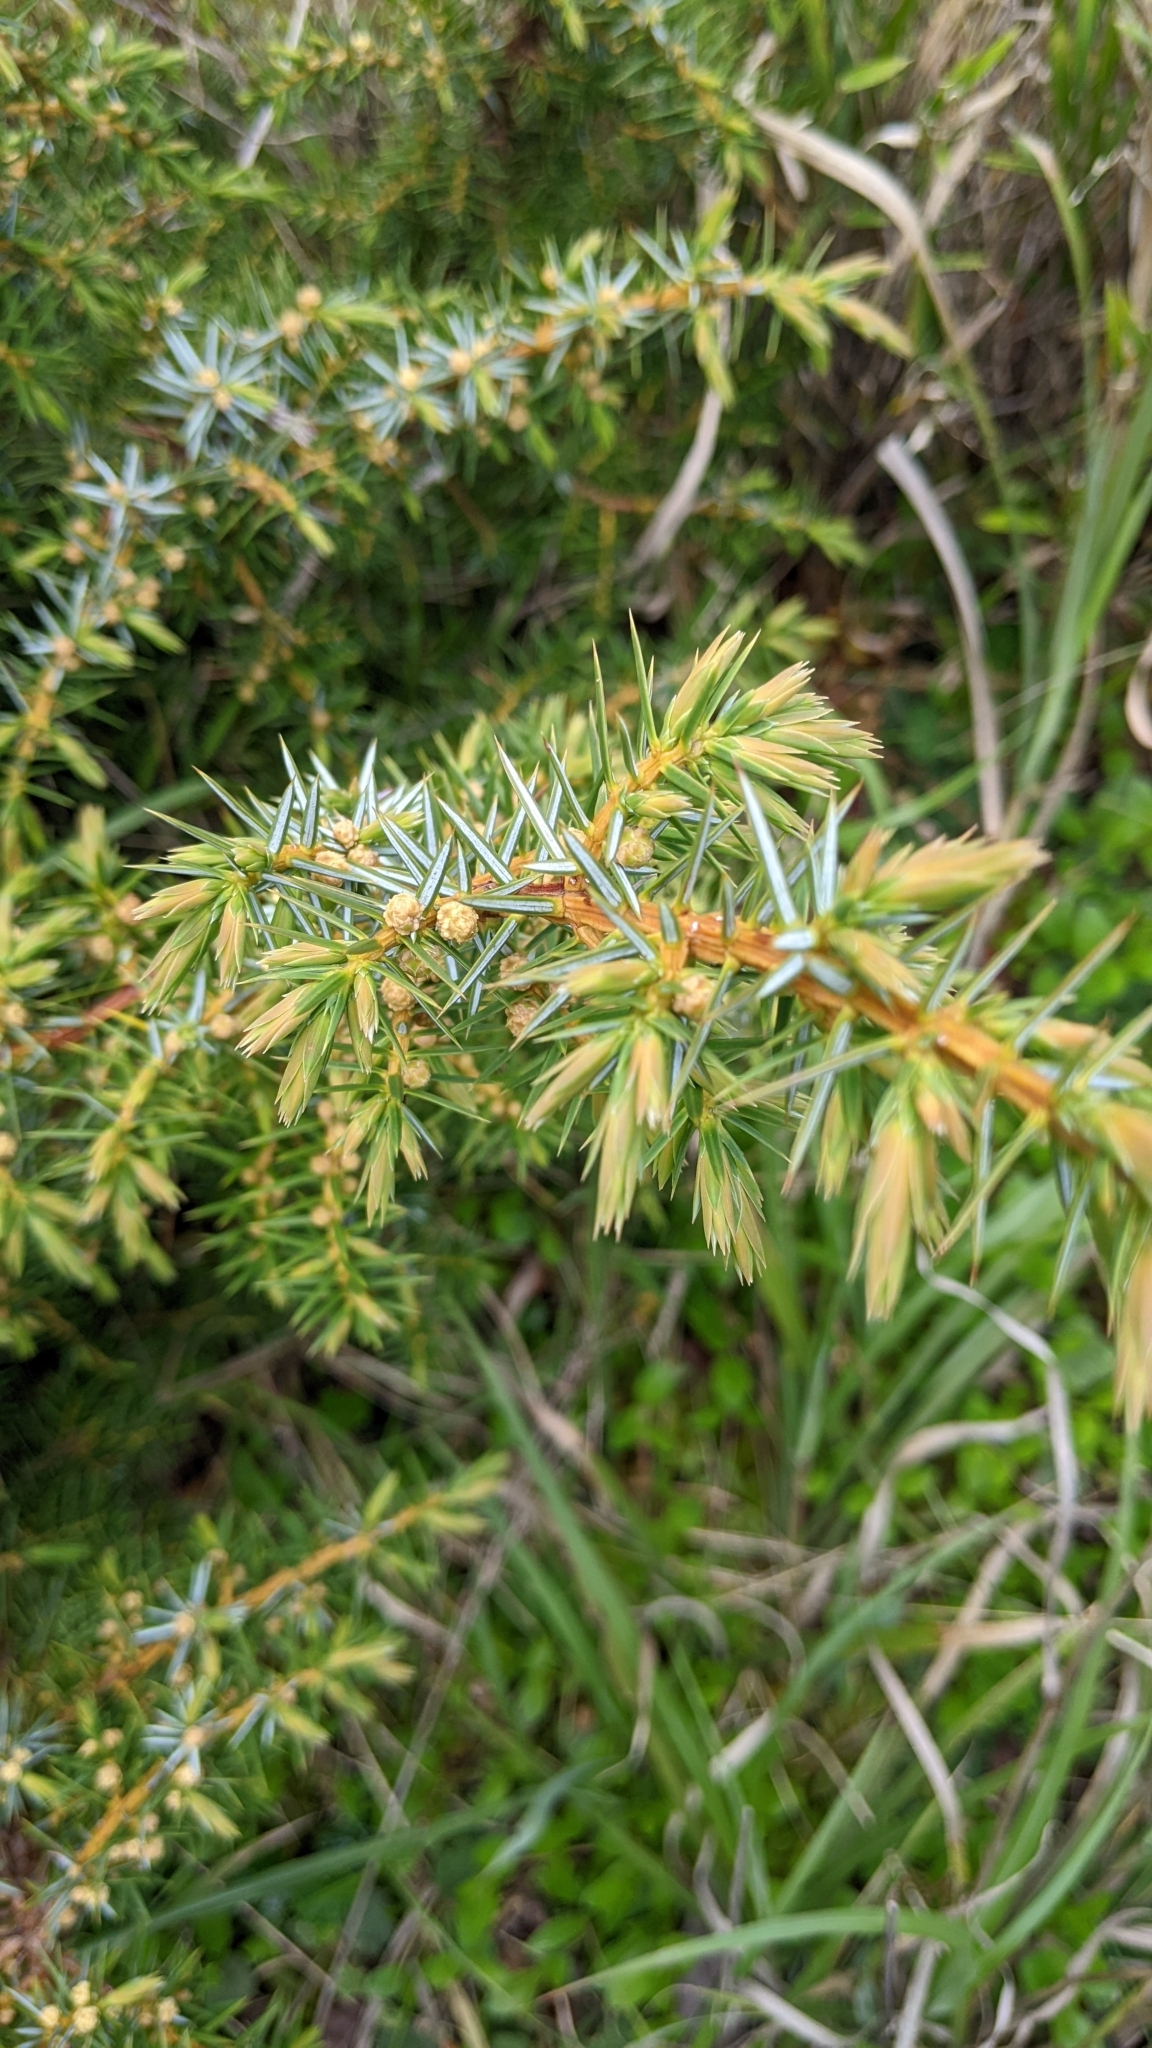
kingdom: Plantae
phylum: Tracheophyta
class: Pinopsida
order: Pinales
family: Cupressaceae
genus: Juniperus
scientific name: Juniperus formosana
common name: Formosan juniper
